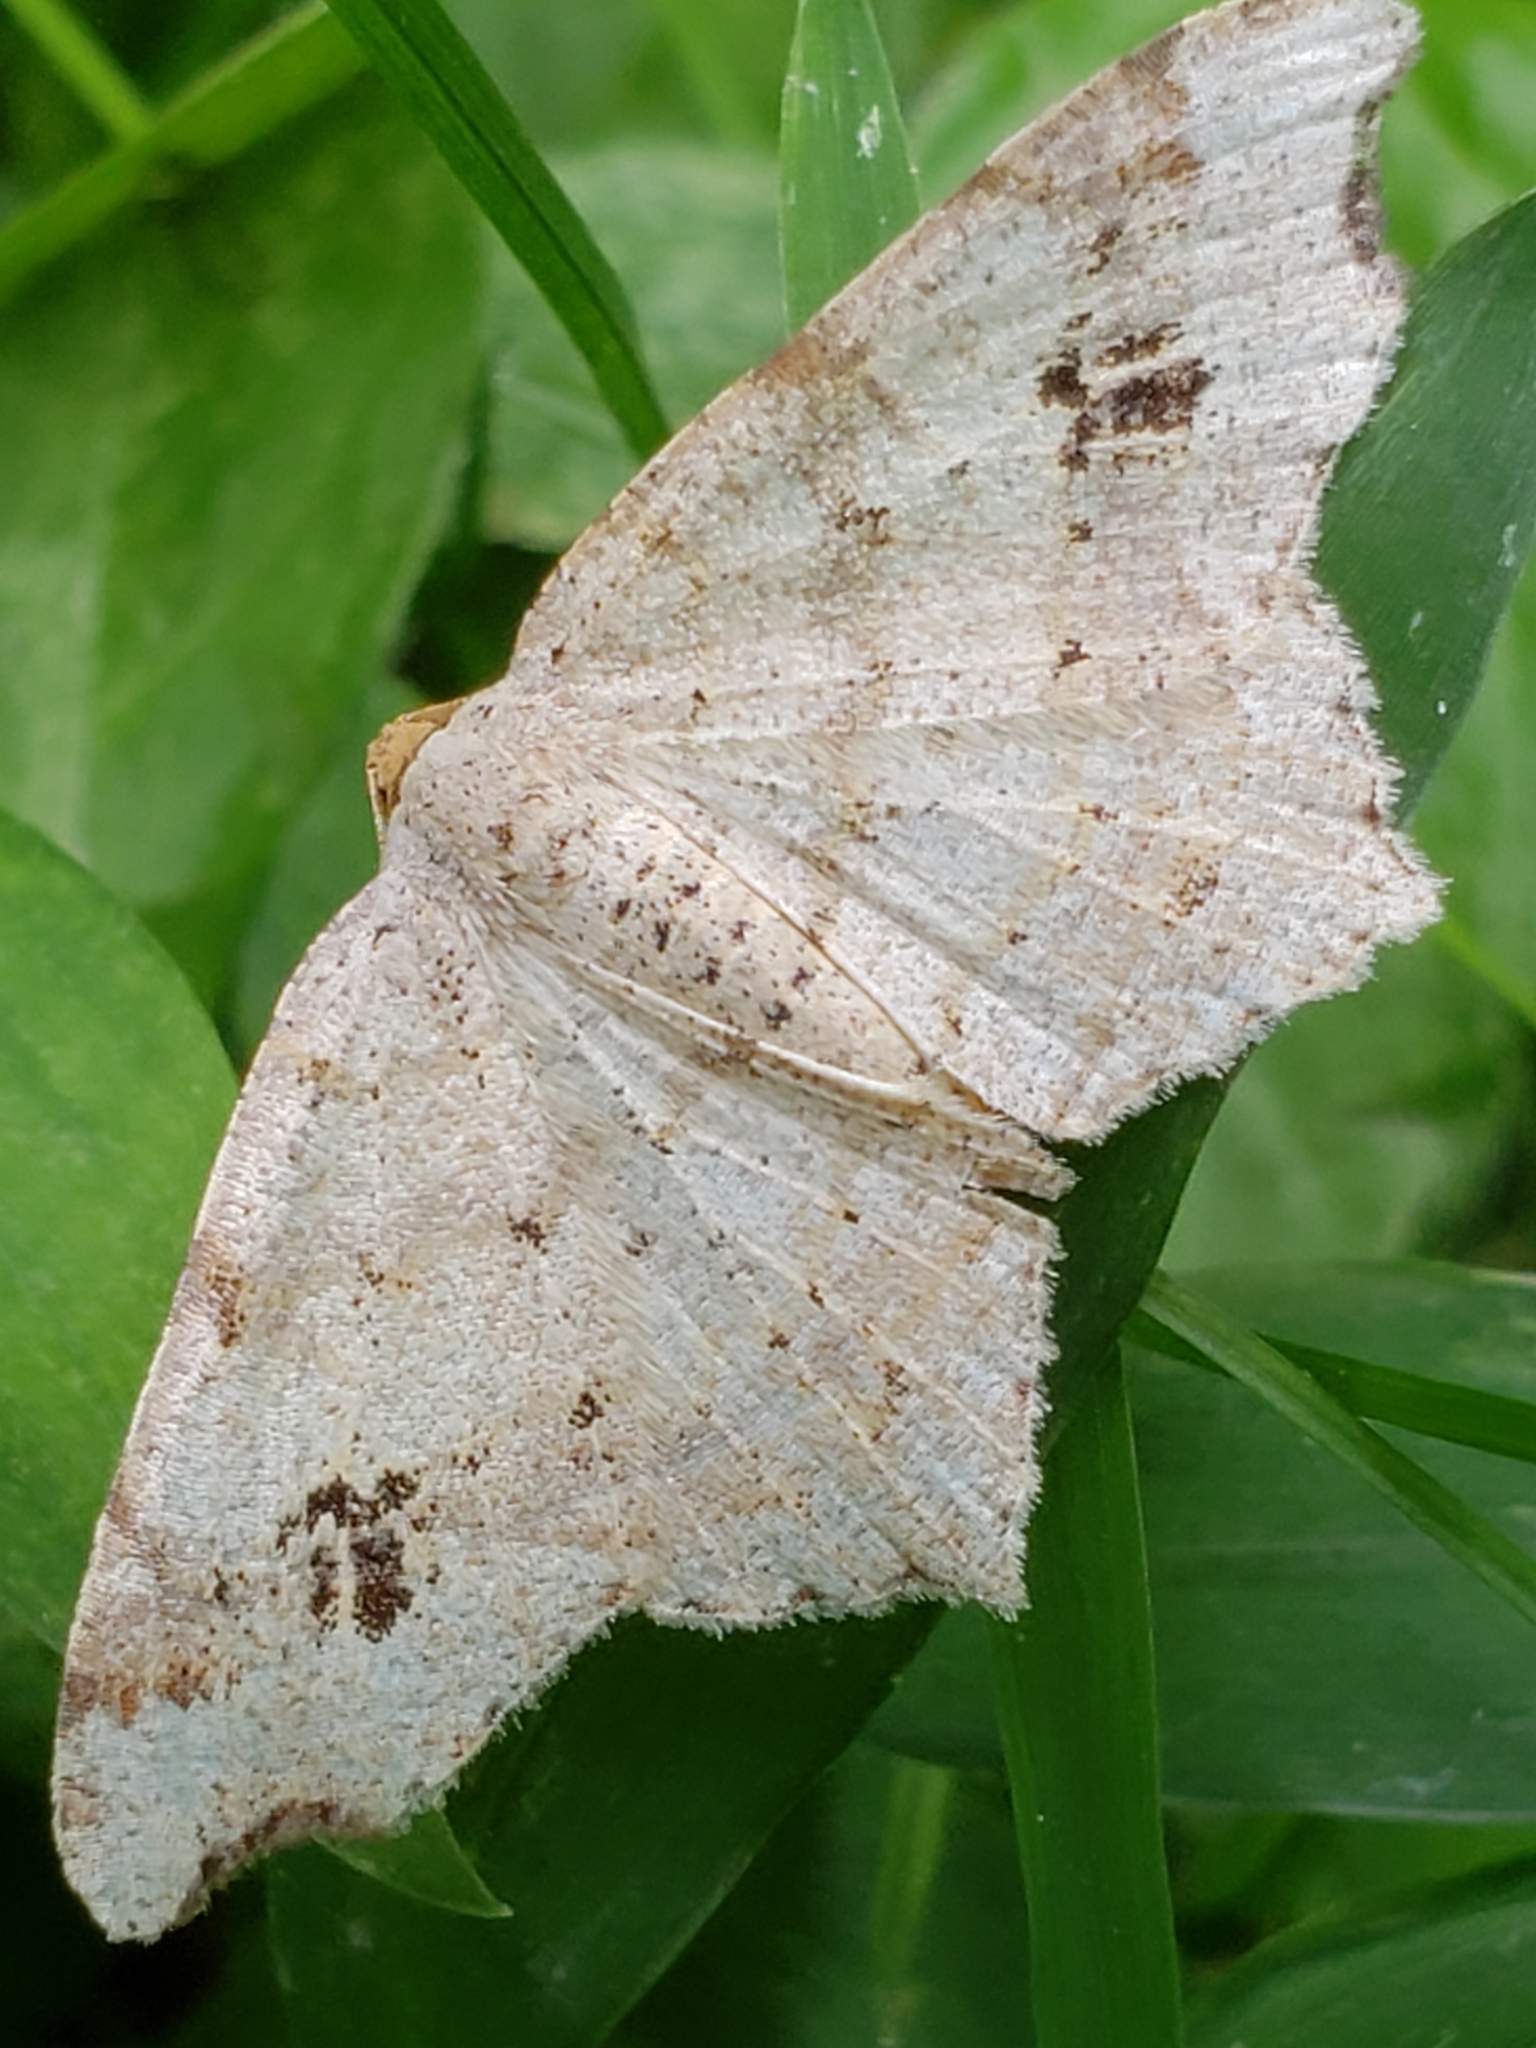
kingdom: Animalia
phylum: Arthropoda
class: Insecta
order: Lepidoptera
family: Geometridae
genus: Macaria
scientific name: Macaria aemulataria
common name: Common angle
